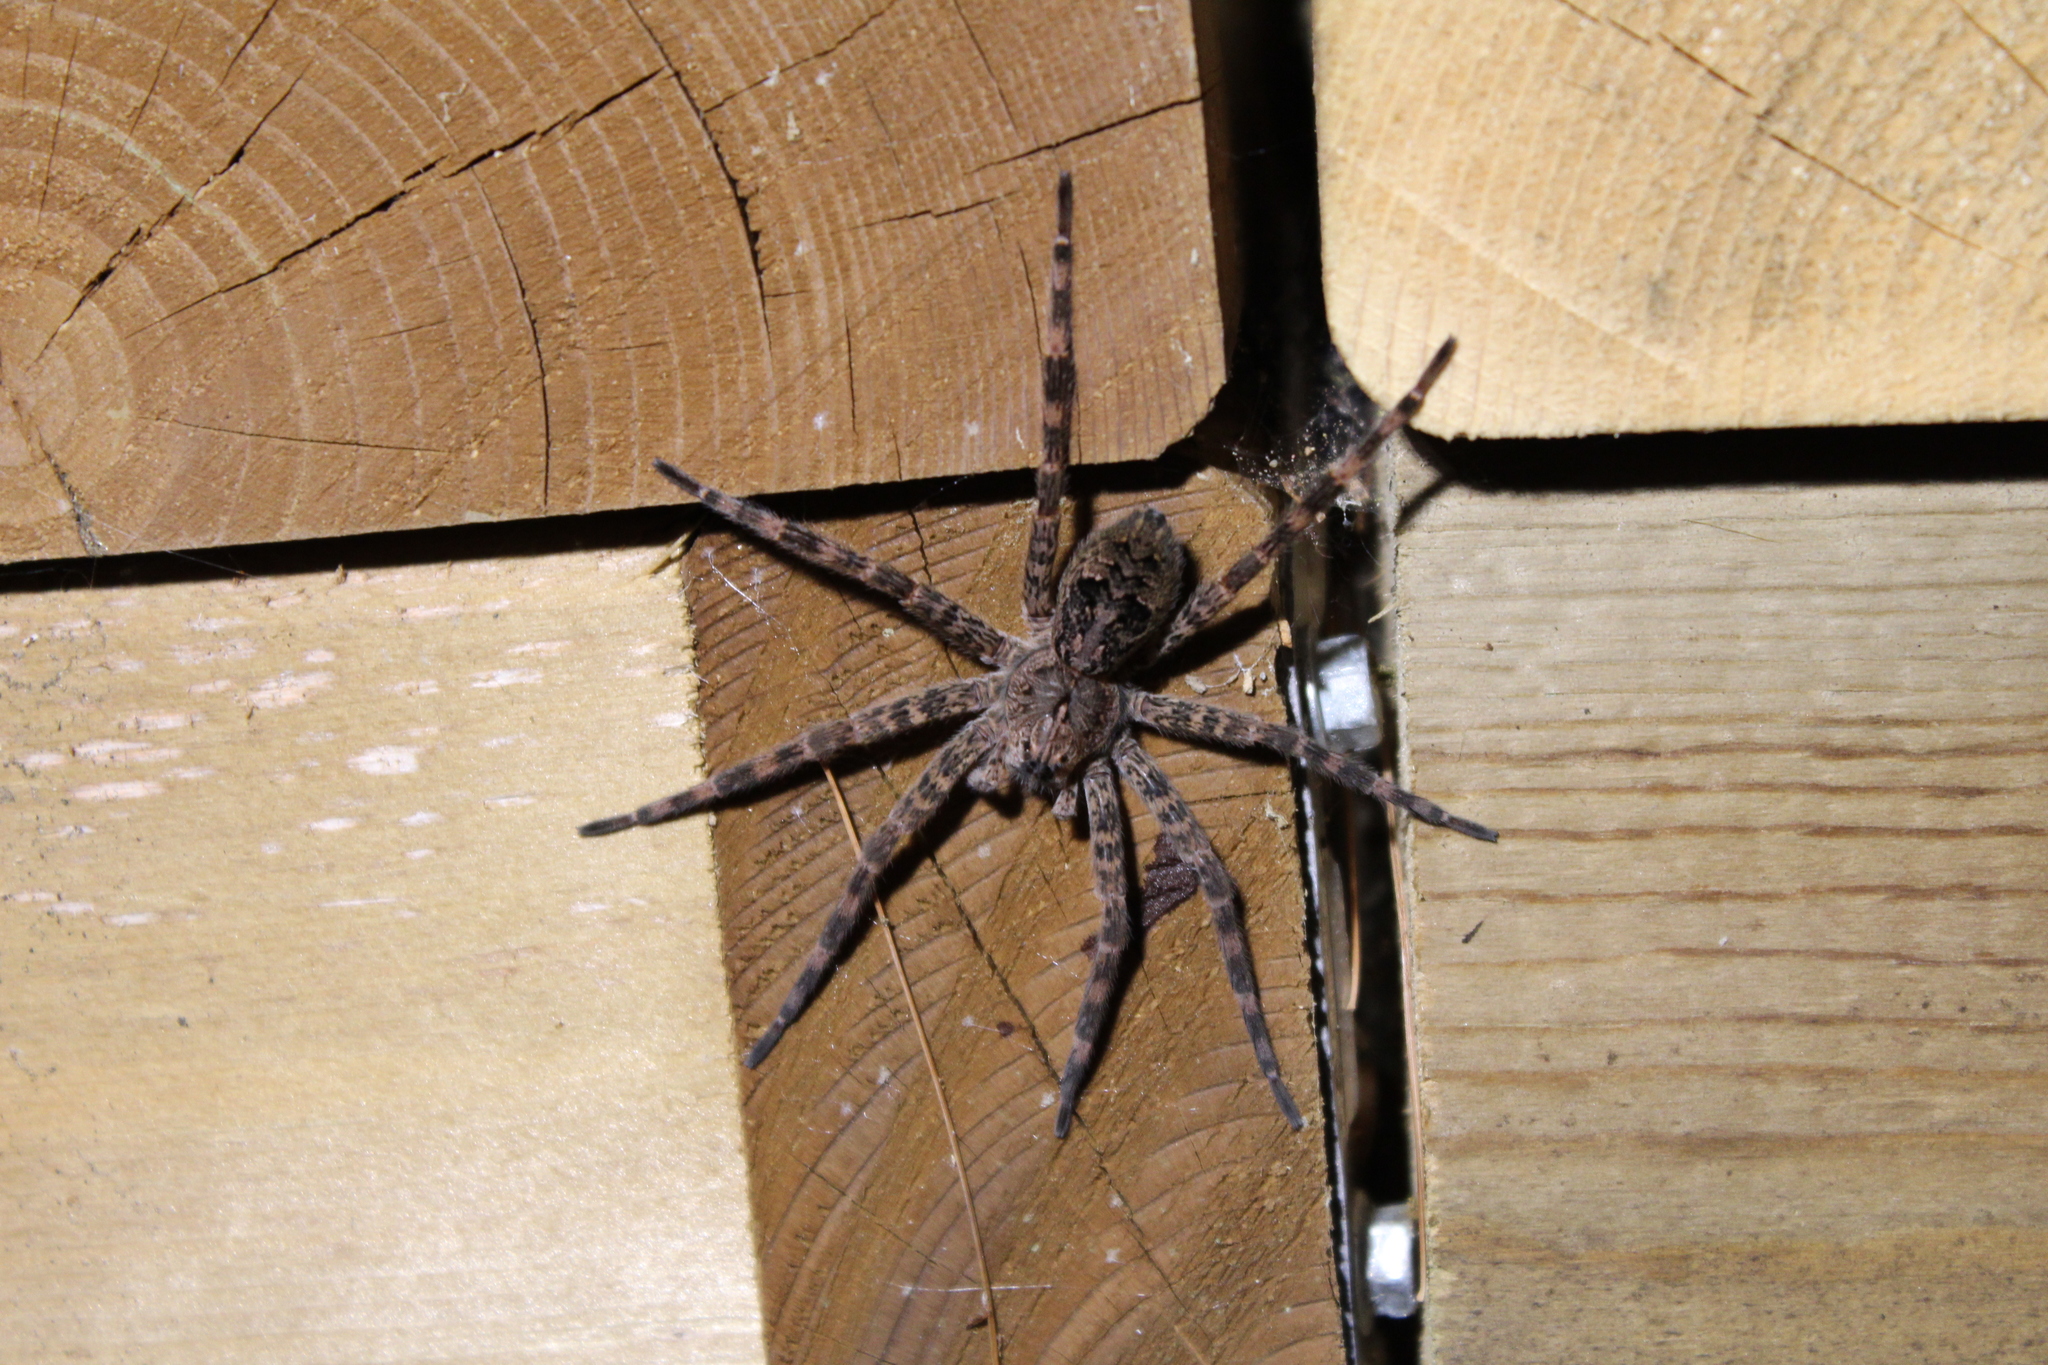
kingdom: Animalia
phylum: Arthropoda
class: Arachnida
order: Araneae
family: Pisauridae
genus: Dolomedes
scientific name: Dolomedes tenebrosus
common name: Dark fishing spider
